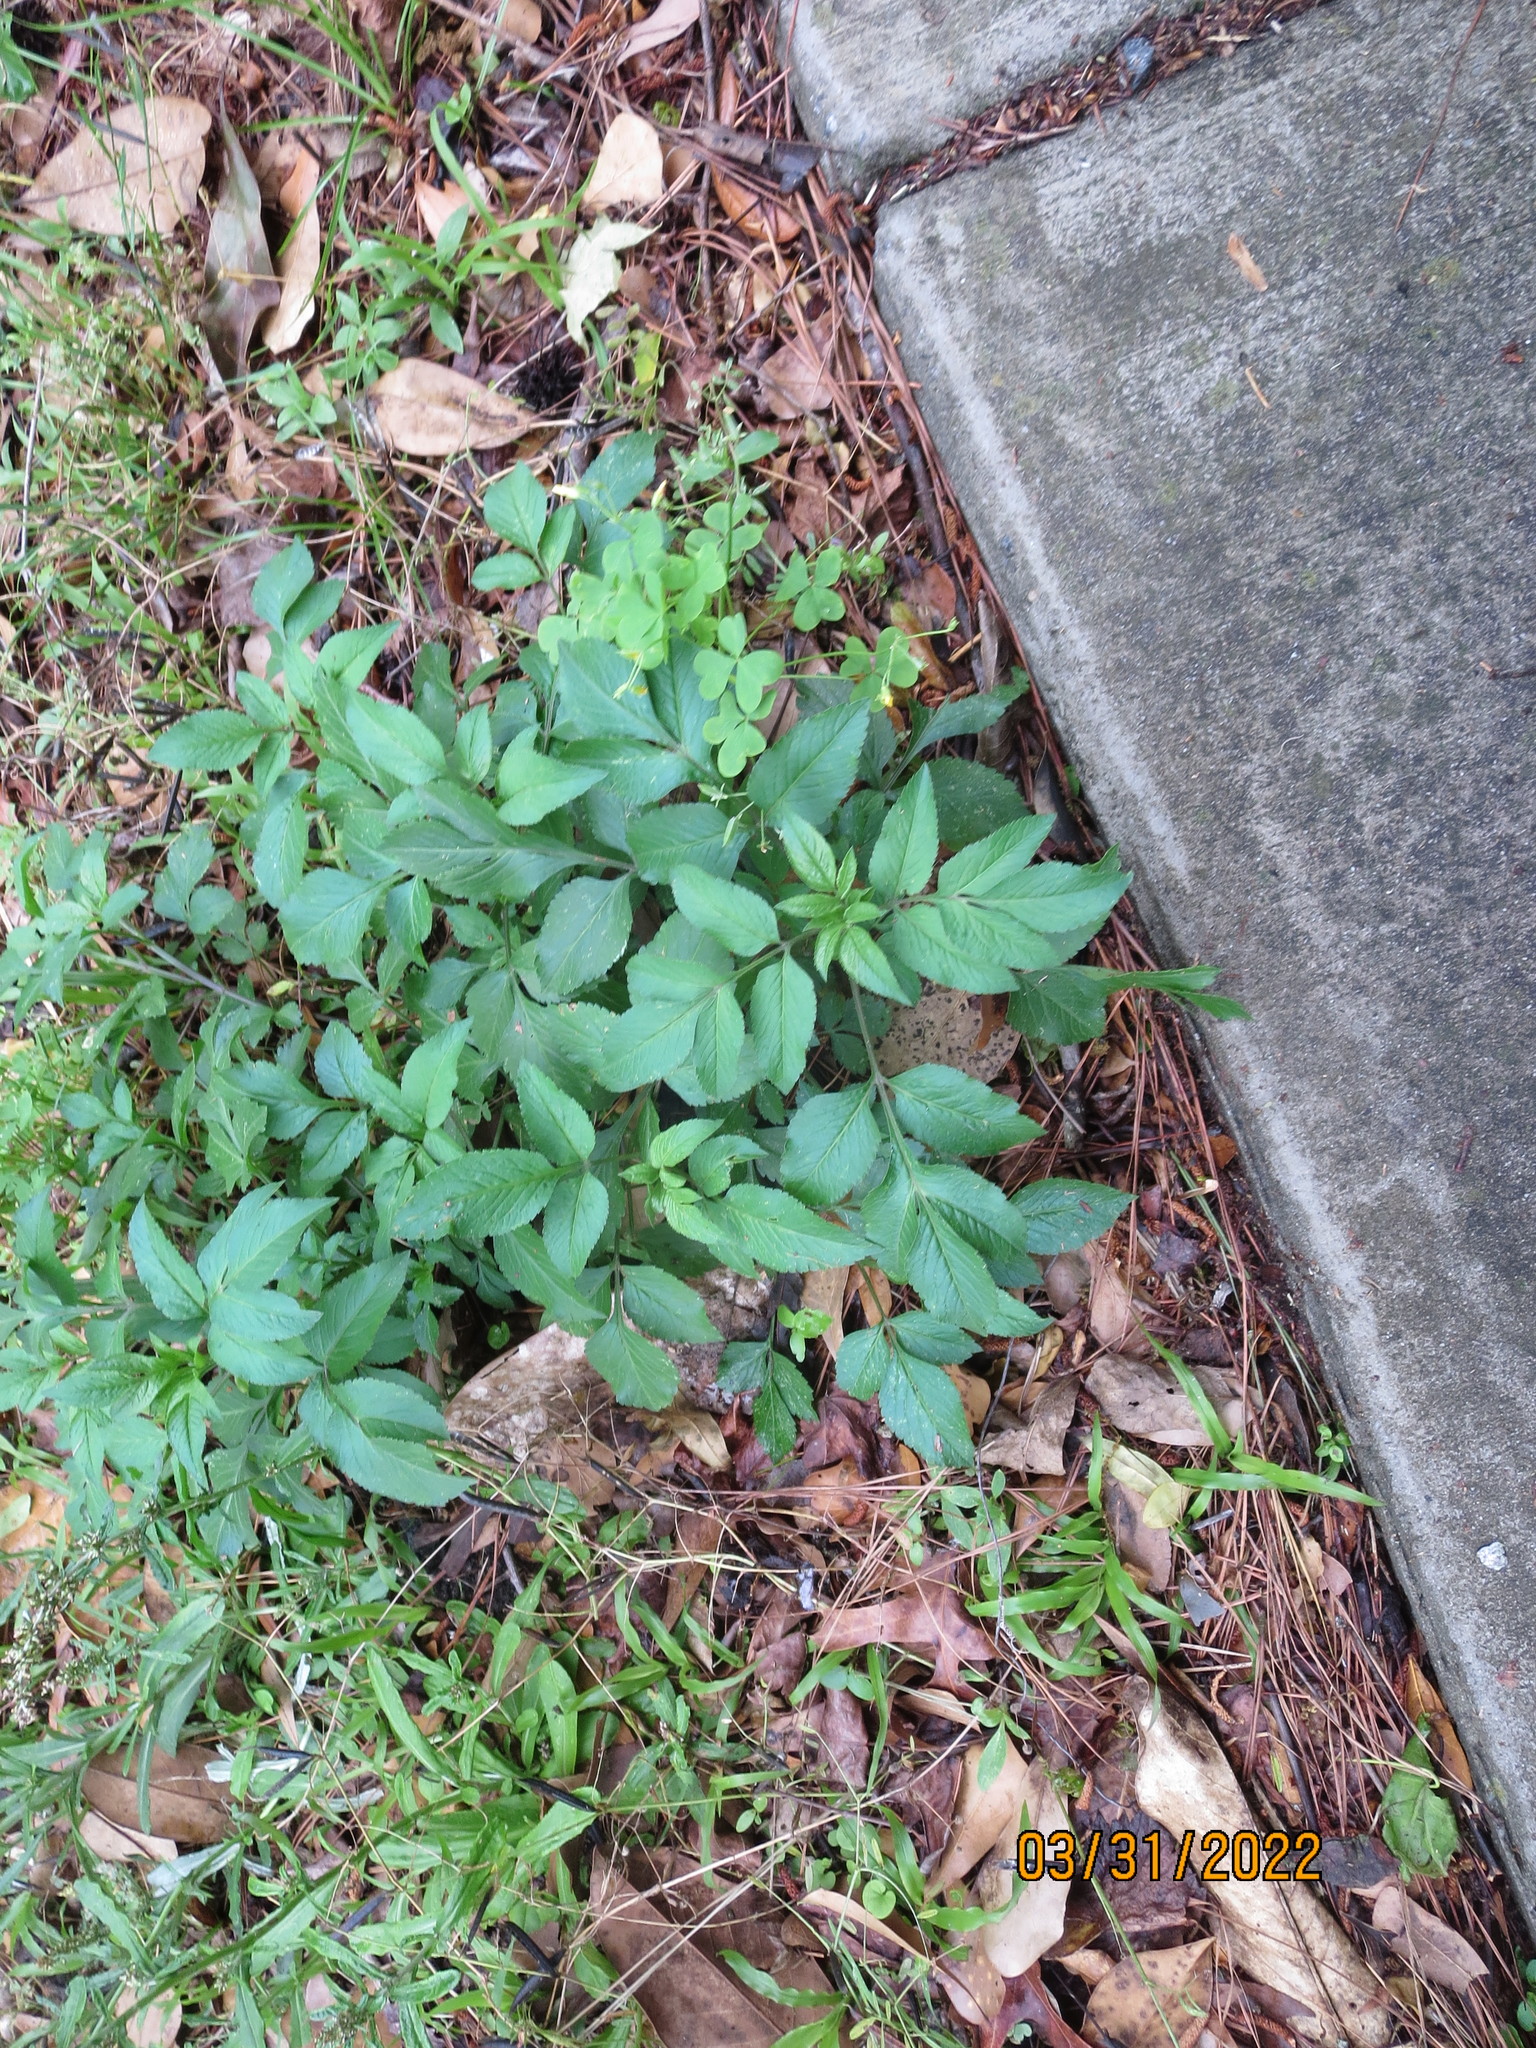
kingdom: Plantae
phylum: Tracheophyta
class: Magnoliopsida
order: Asterales
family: Asteraceae
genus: Bidens
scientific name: Bidens alba
